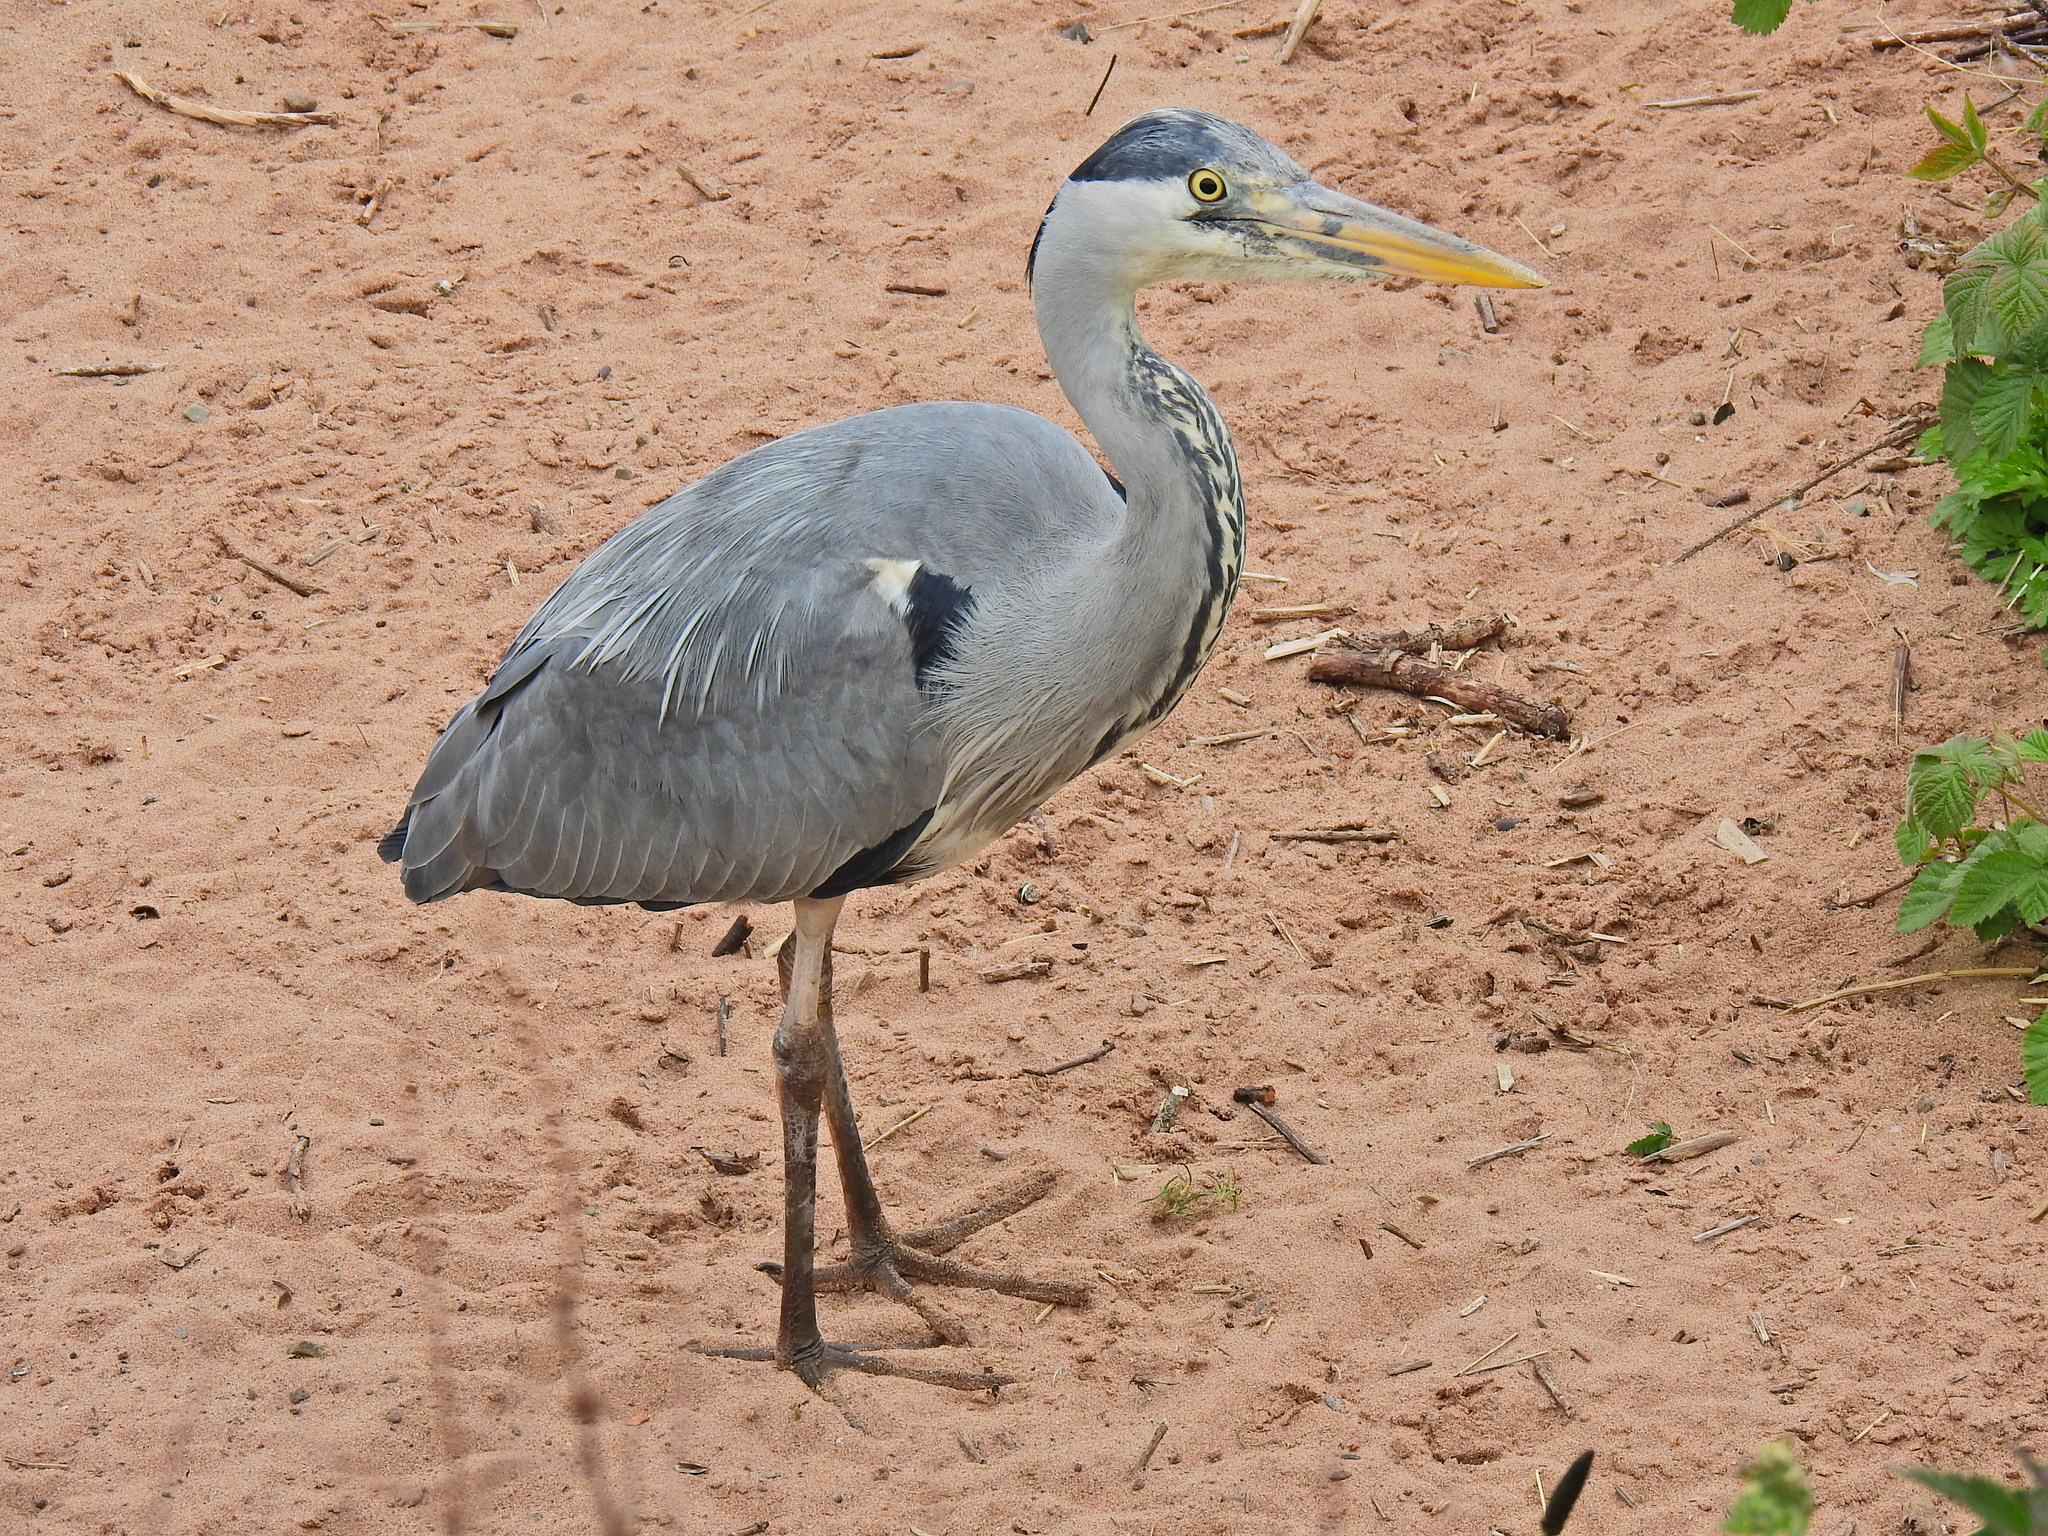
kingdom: Animalia
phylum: Chordata
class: Aves
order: Pelecaniformes
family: Ardeidae
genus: Ardea
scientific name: Ardea cinerea
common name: Grey heron
